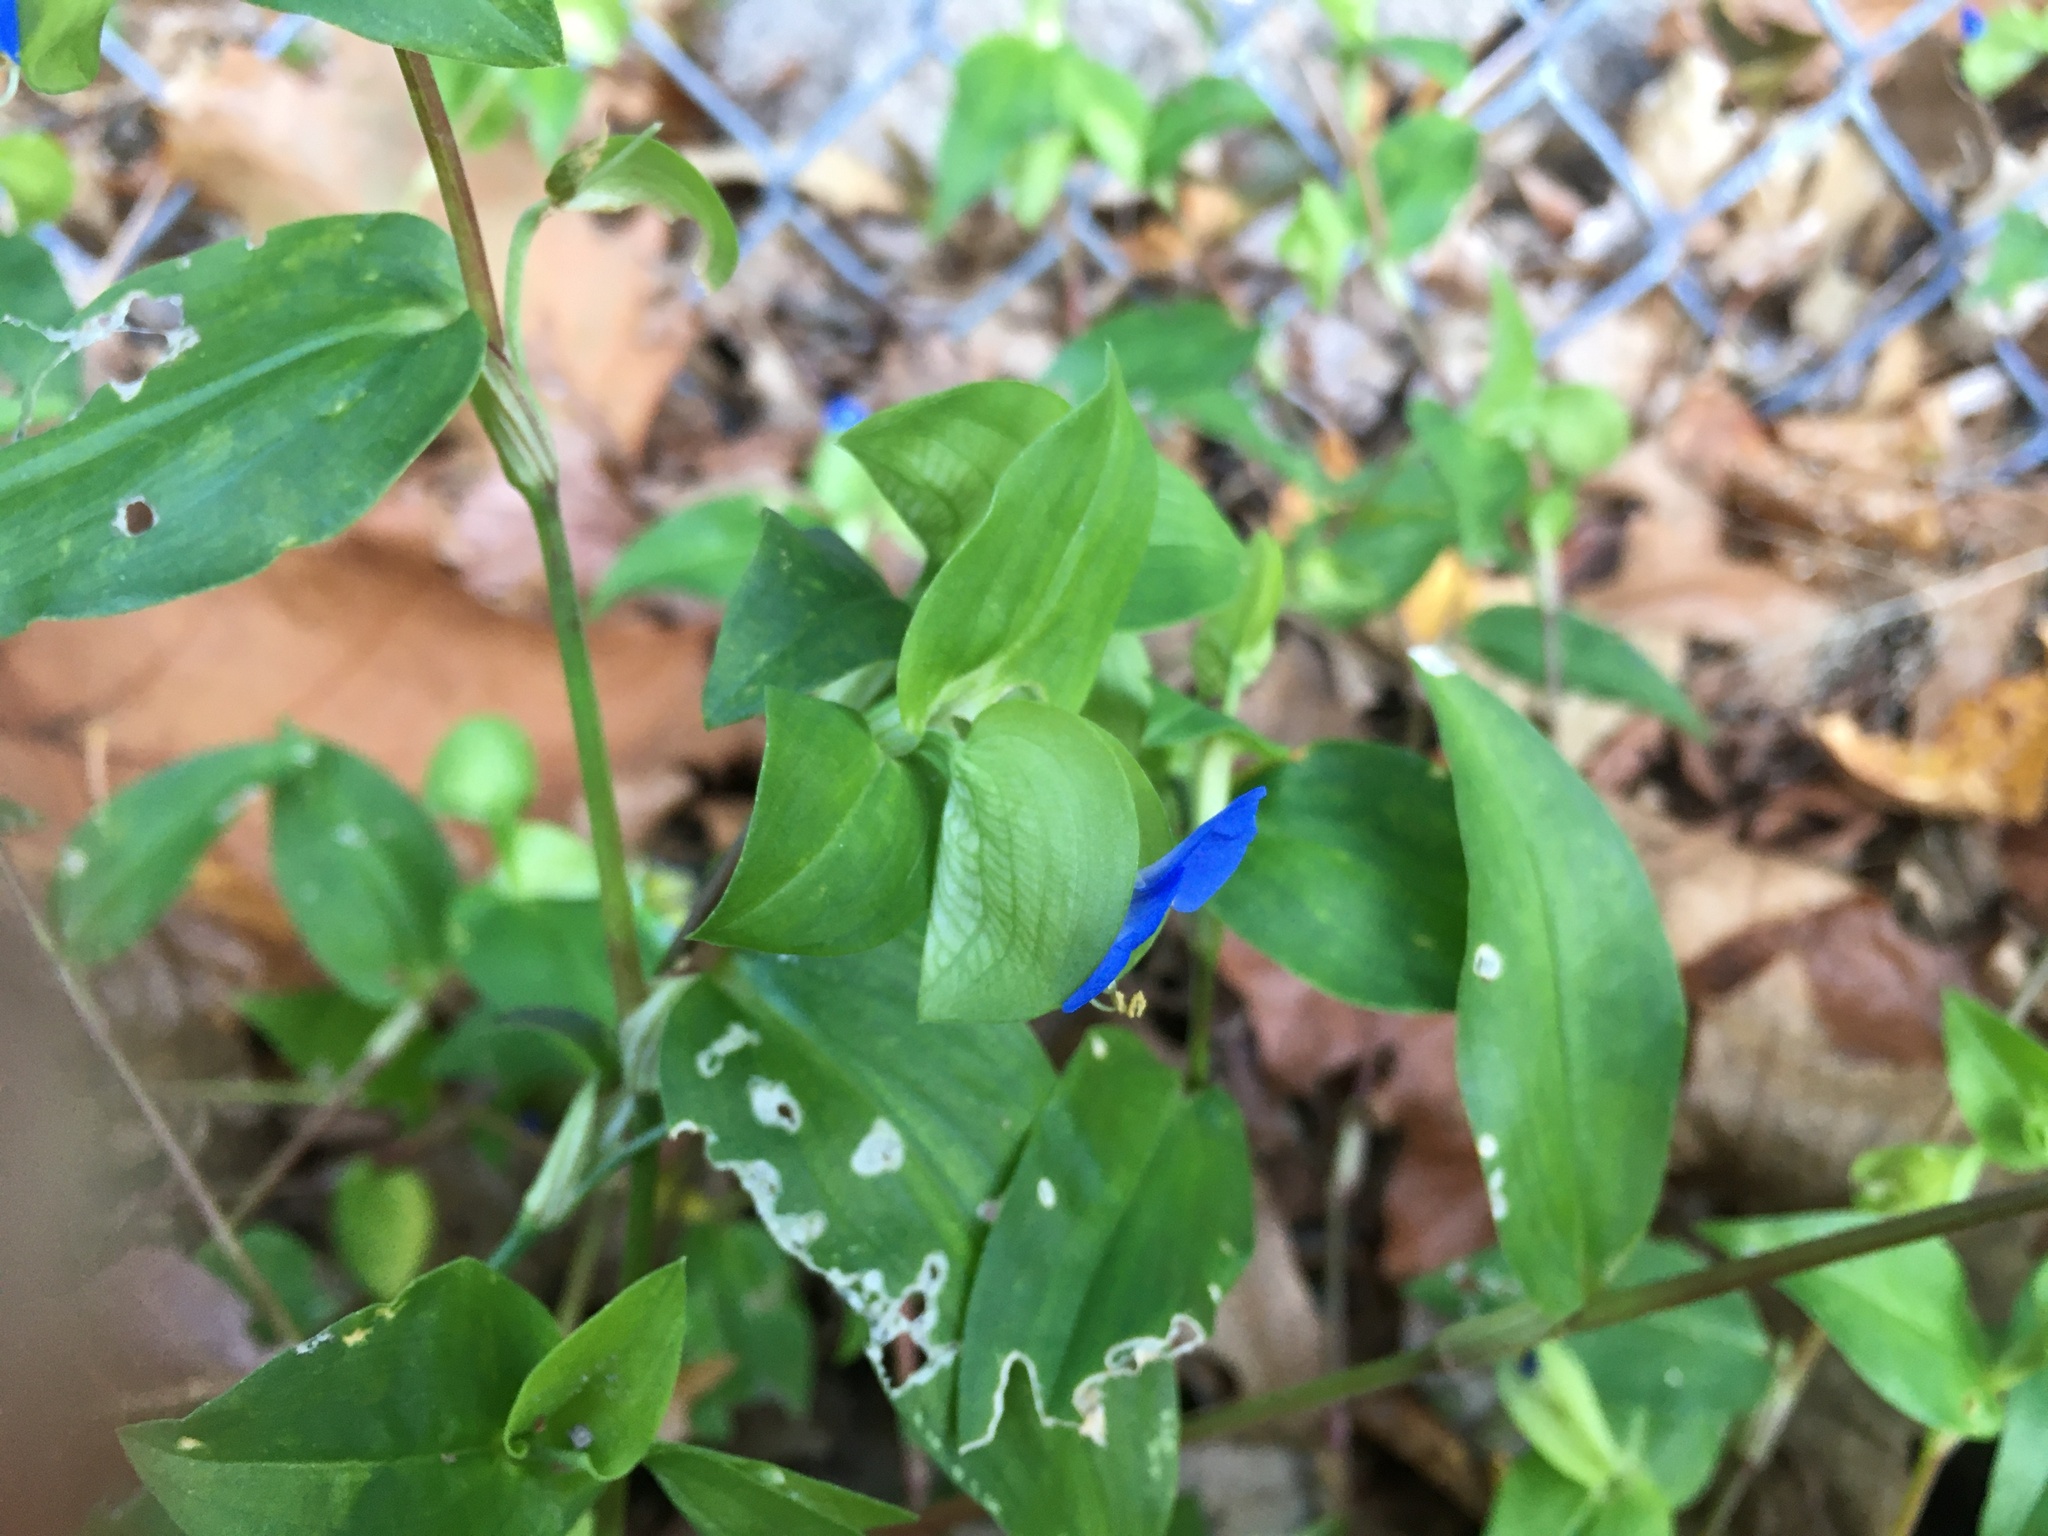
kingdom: Plantae
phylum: Tracheophyta
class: Liliopsida
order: Commelinales
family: Commelinaceae
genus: Commelina
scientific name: Commelina communis
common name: Asiatic dayflower
